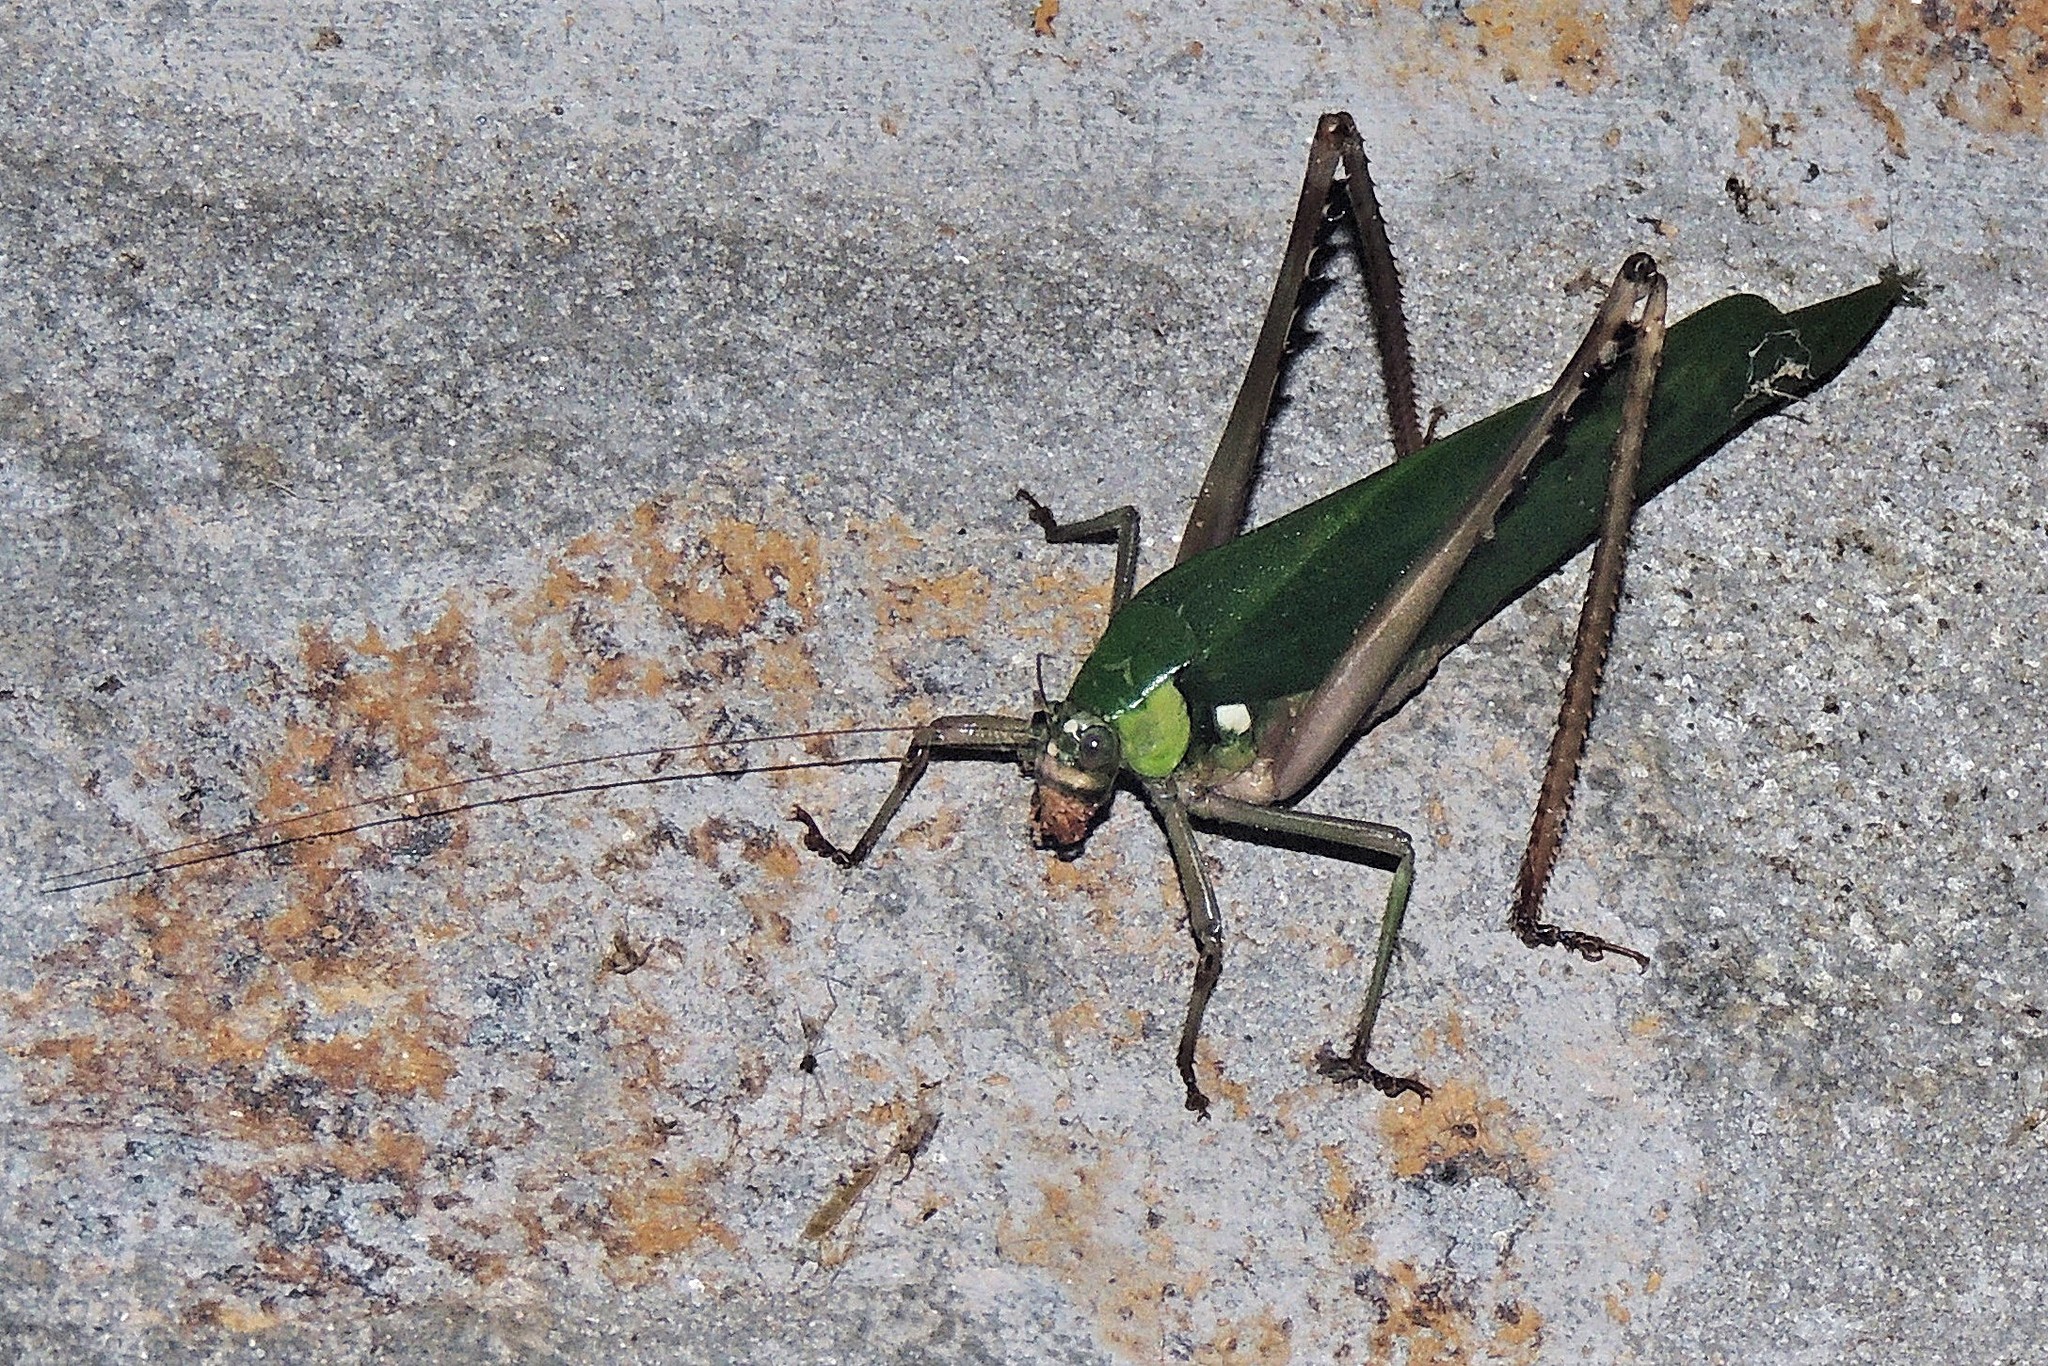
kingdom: Animalia
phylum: Arthropoda
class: Insecta
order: Orthoptera
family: Tettigoniidae
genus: Vellea
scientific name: Vellea cruenta
